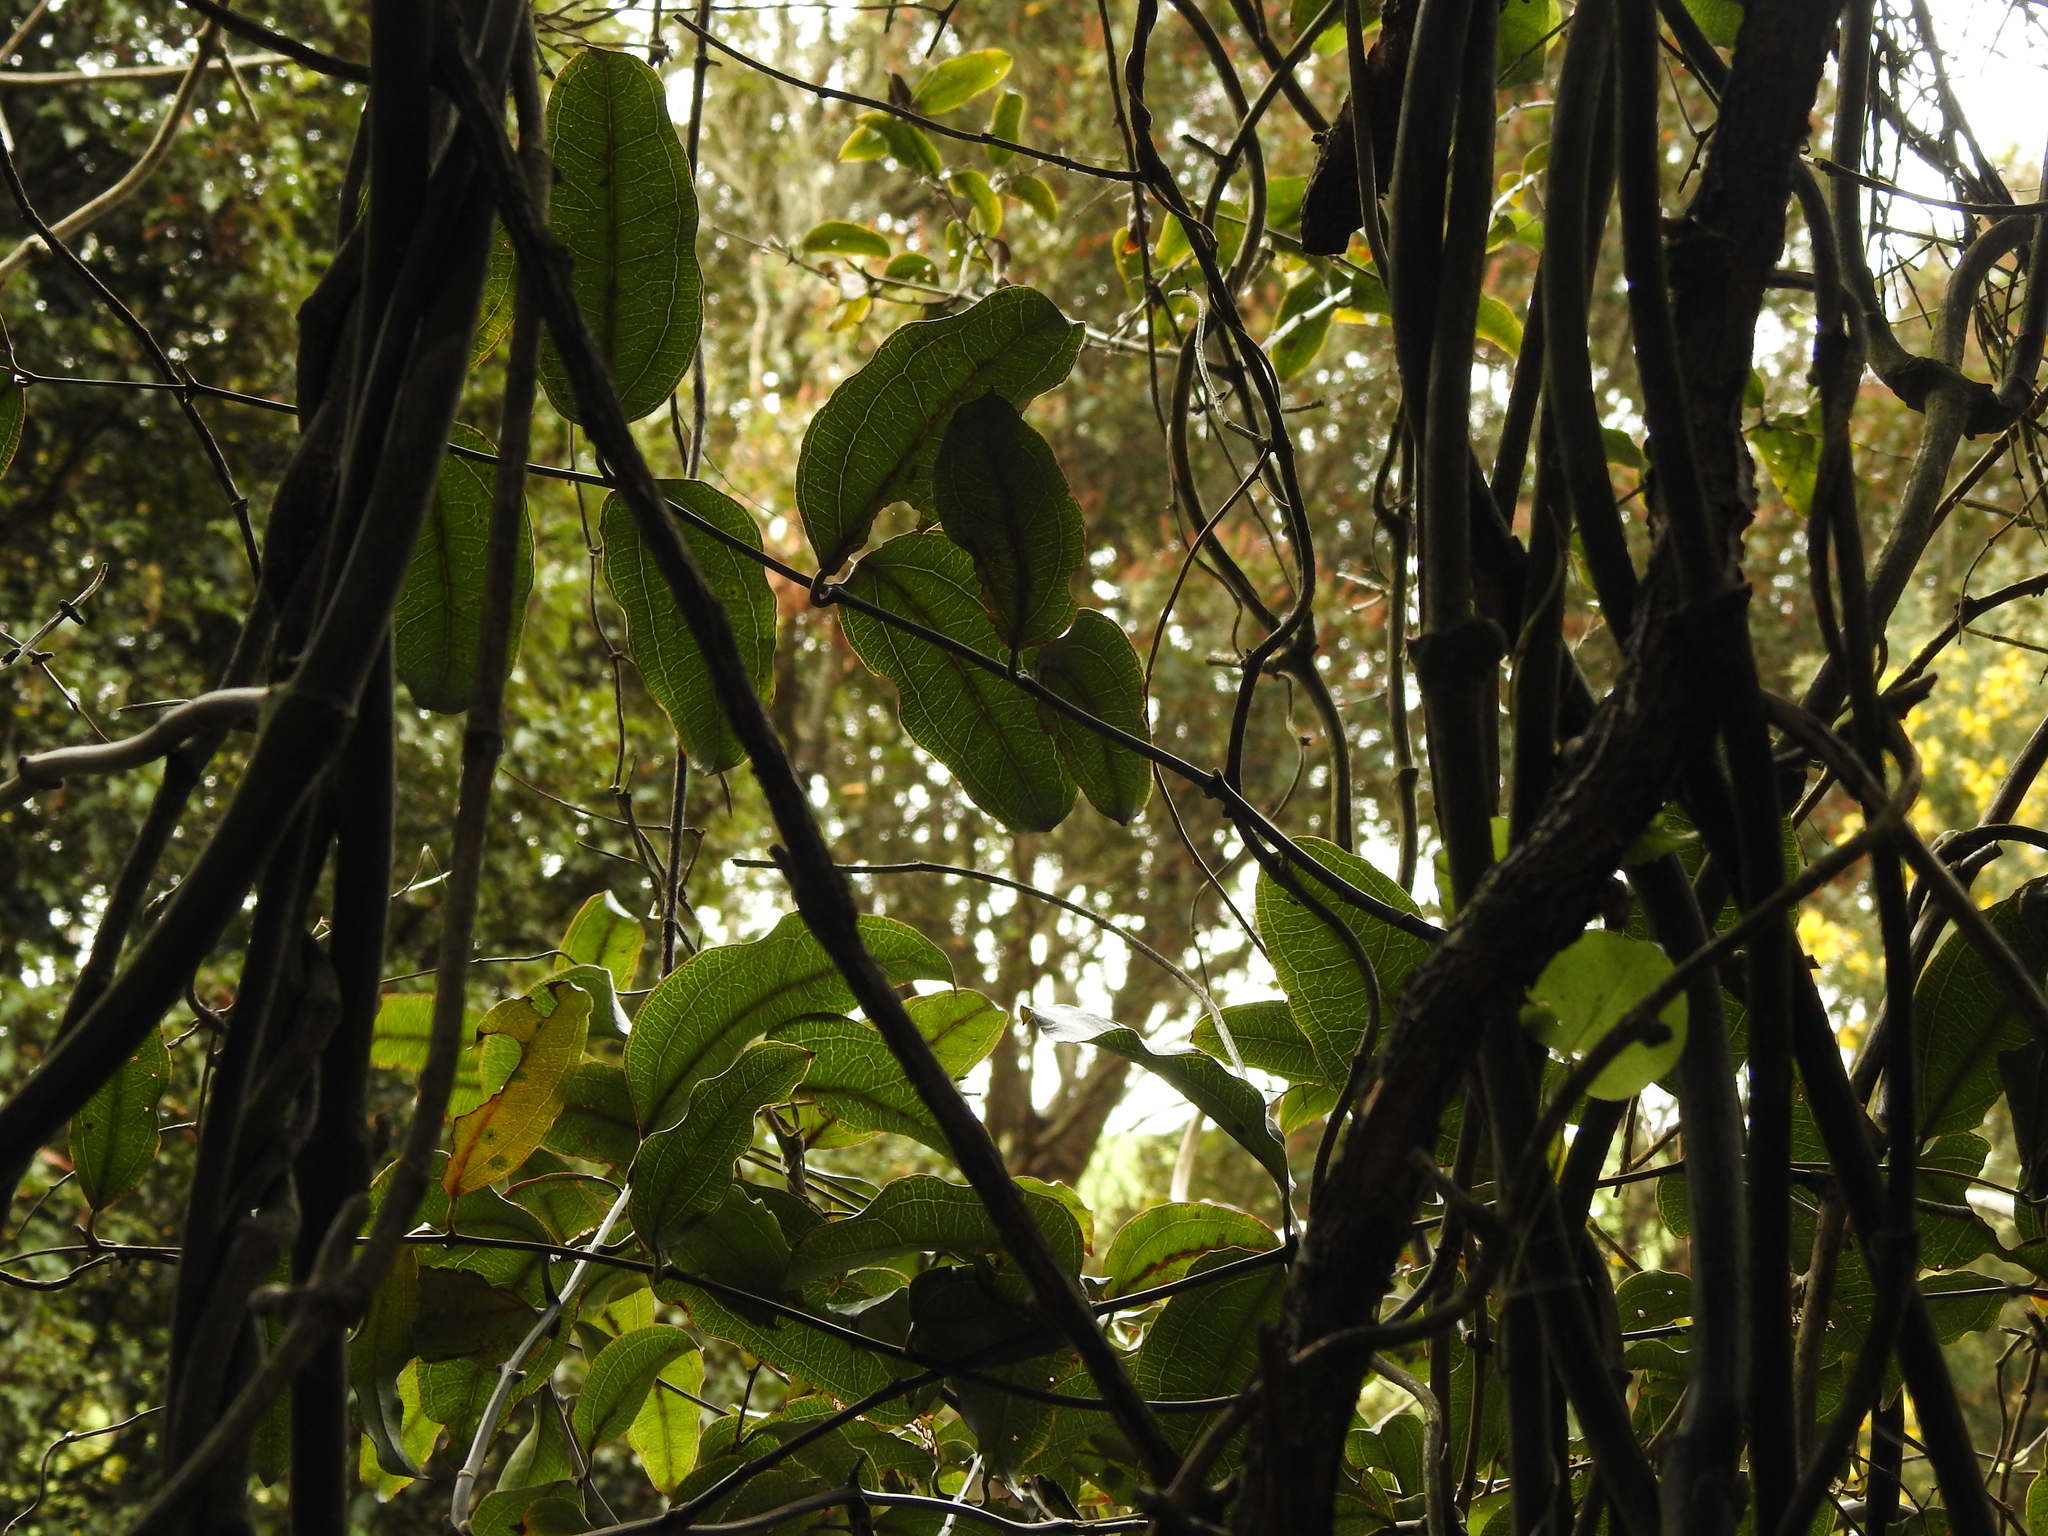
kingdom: Plantae
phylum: Tracheophyta
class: Liliopsida
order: Liliales
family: Ripogonaceae
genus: Ripogonum
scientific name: Ripogonum scandens
